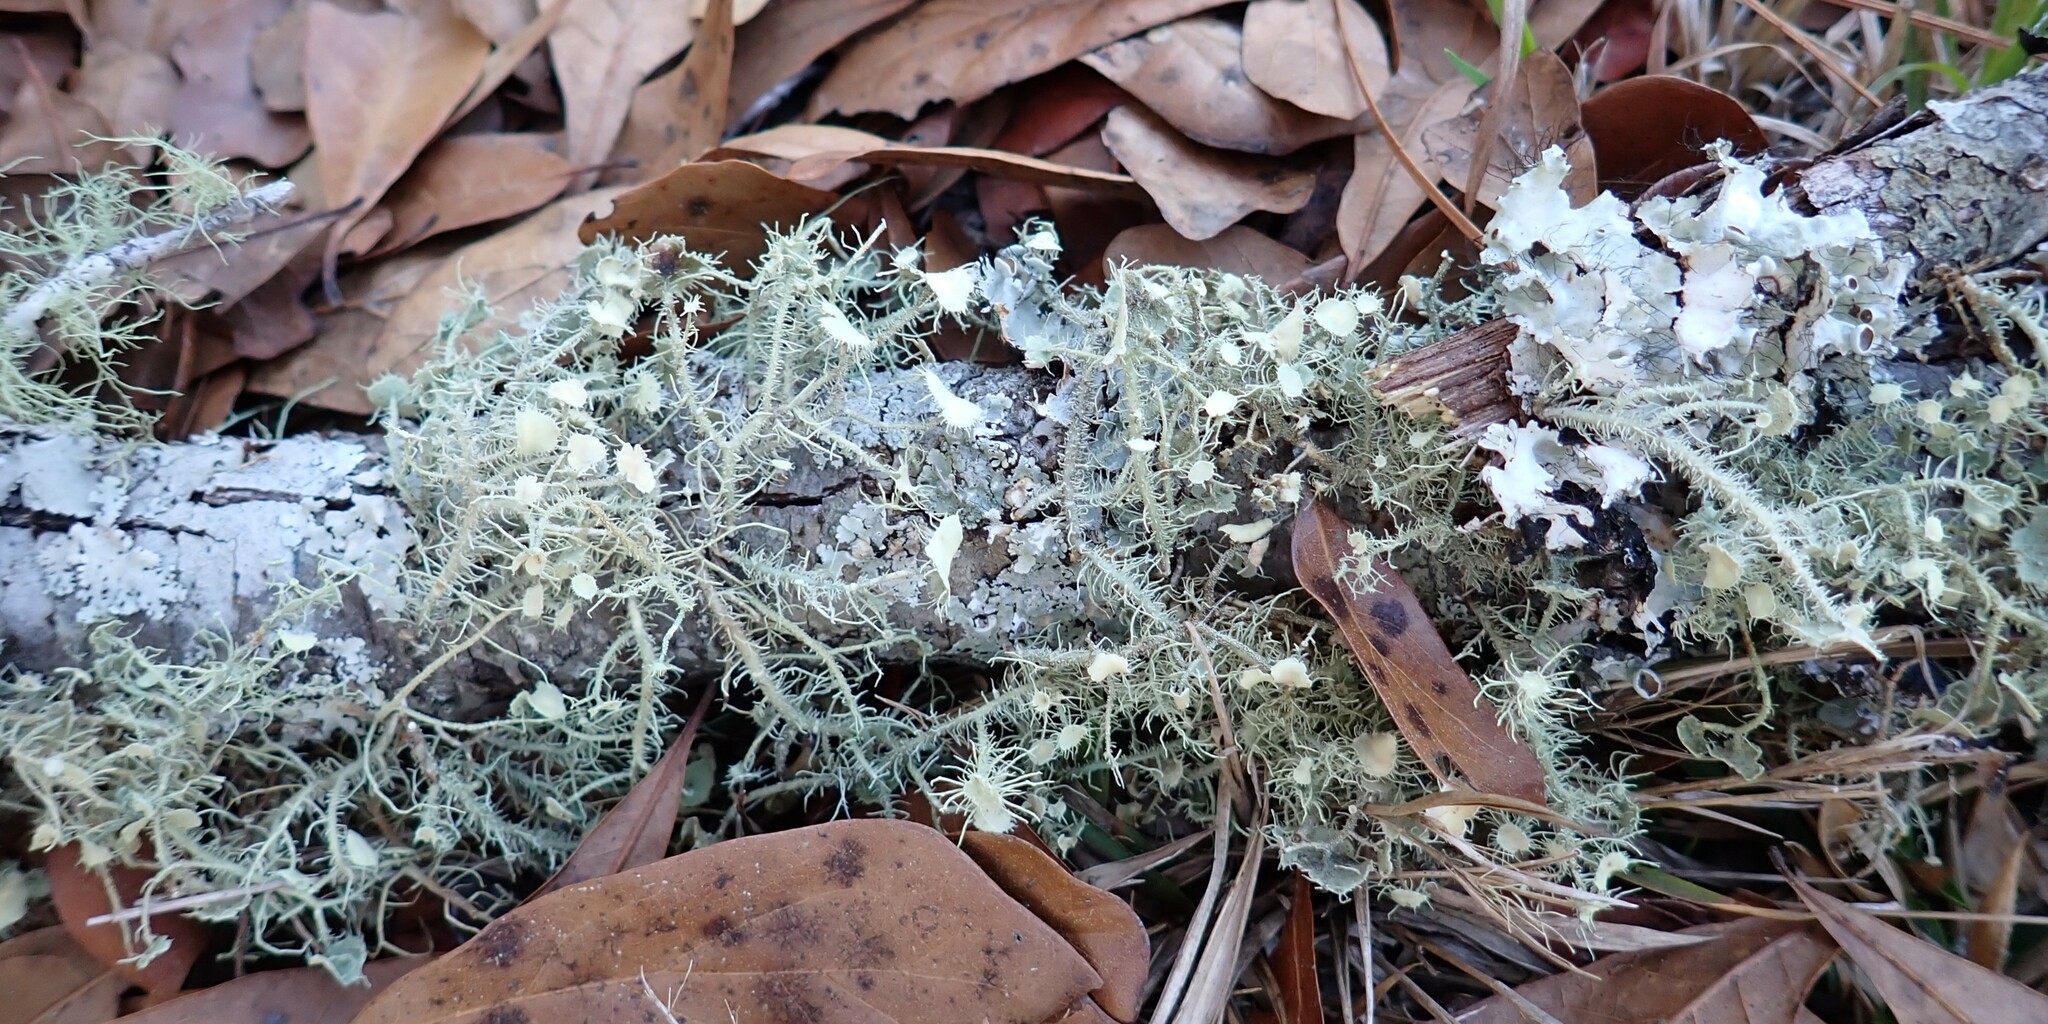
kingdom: Fungi
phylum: Ascomycota
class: Lecanoromycetes
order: Lecanorales
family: Parmeliaceae
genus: Usnea
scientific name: Usnea strigosa
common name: Bushy beard lichen
